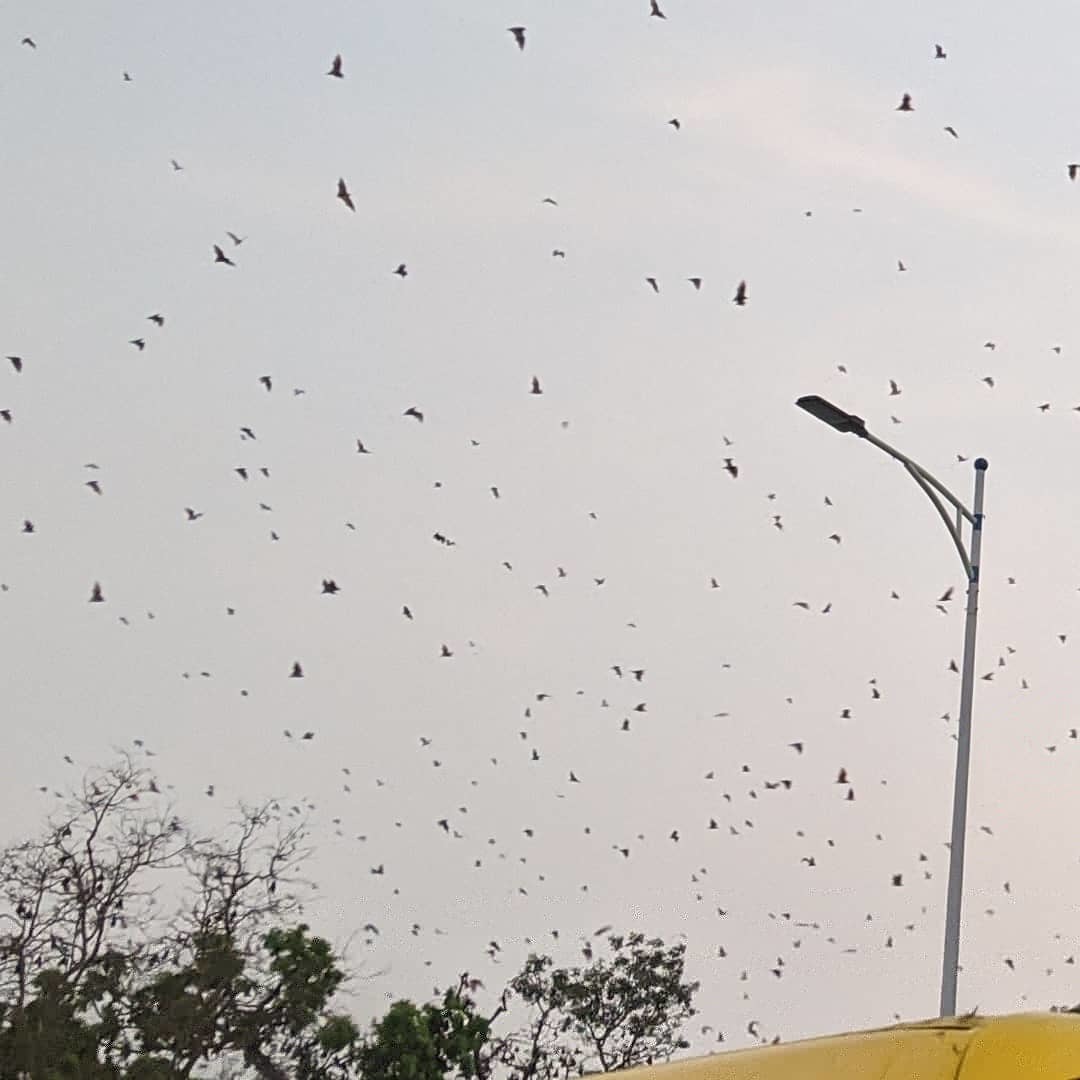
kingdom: Animalia
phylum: Chordata
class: Mammalia
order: Chiroptera
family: Pteropodidae
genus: Eidolon
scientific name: Eidolon helvum
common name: Straw-colored fruit bat
